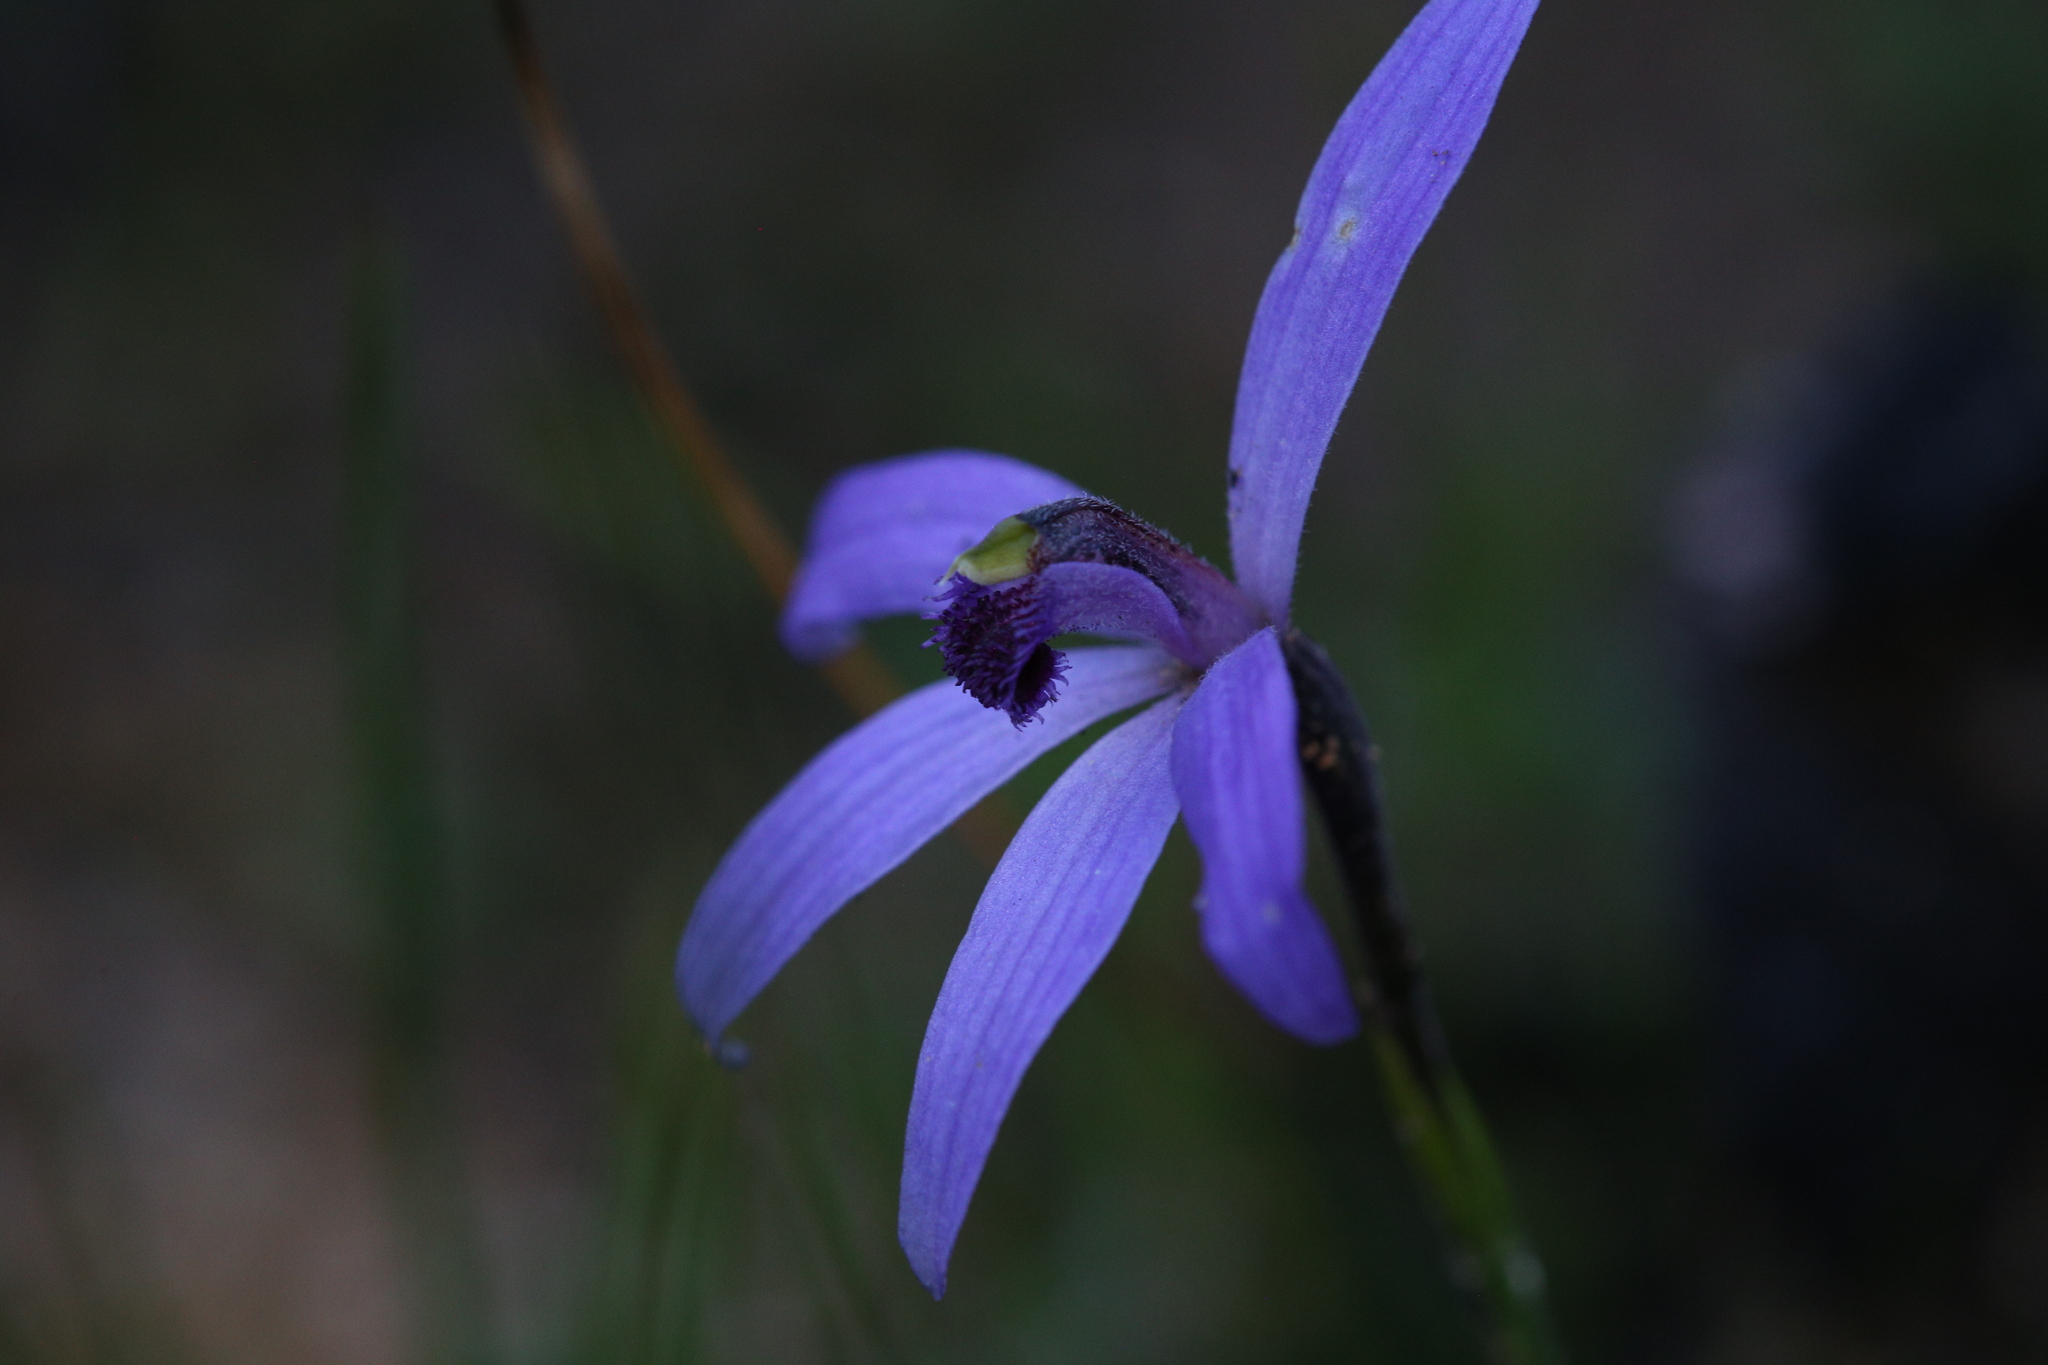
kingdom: Plantae
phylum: Tracheophyta
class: Liliopsida
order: Asparagales
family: Orchidaceae
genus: Pheladenia
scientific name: Pheladenia deformis
